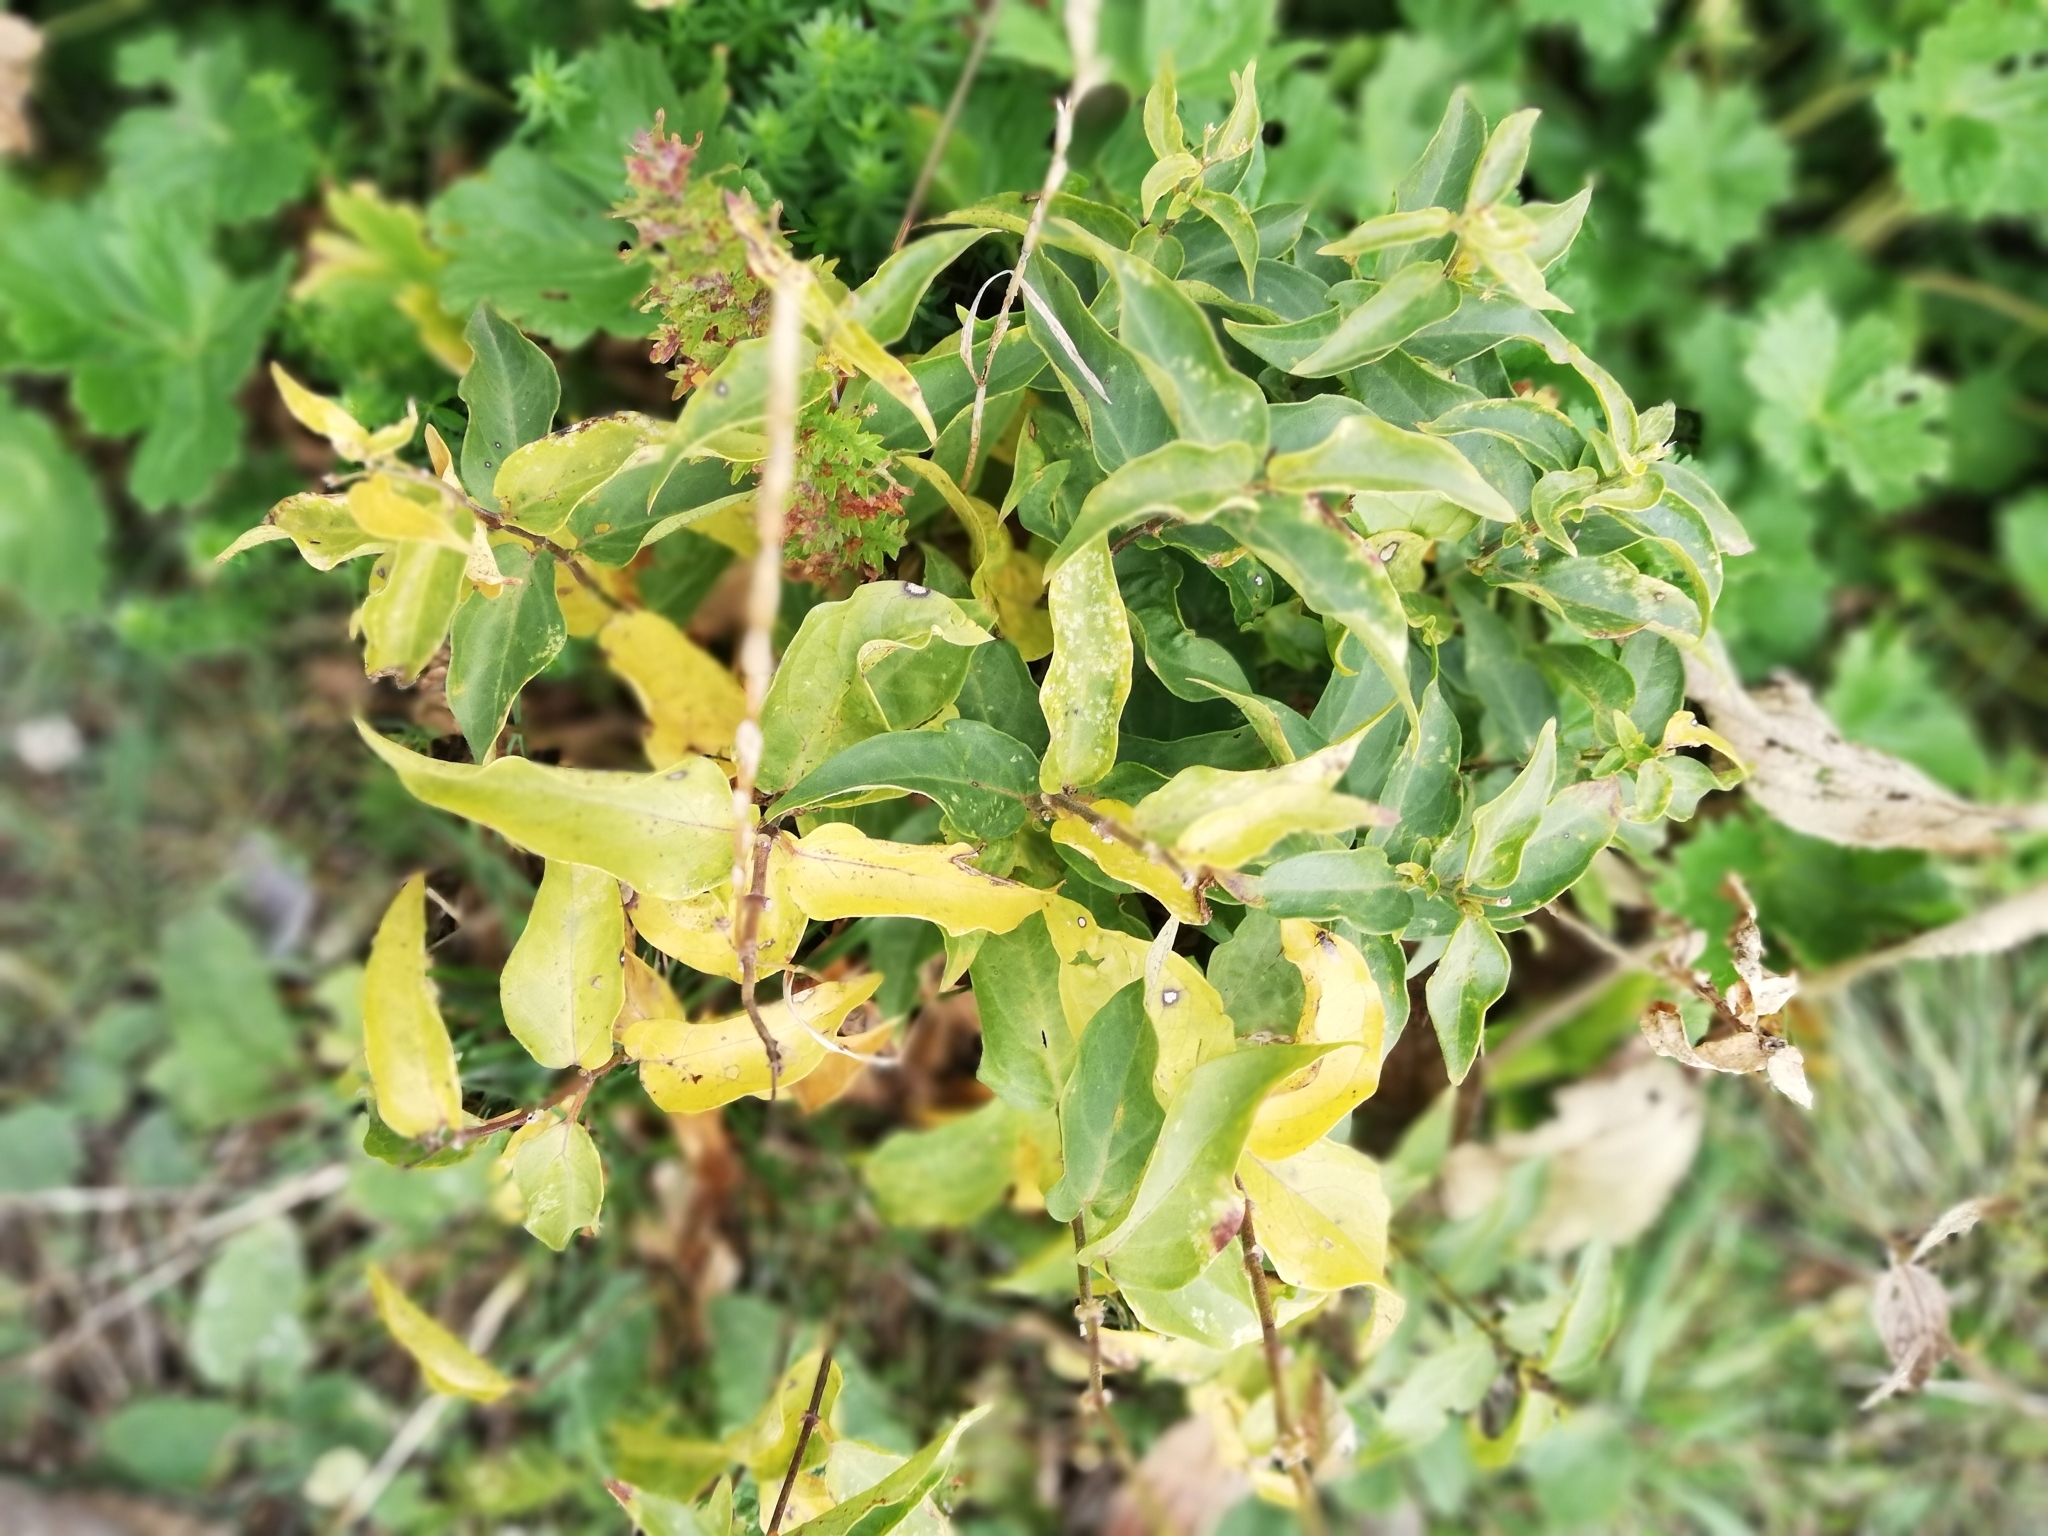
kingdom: Plantae
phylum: Tracheophyta
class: Magnoliopsida
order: Gentianales
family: Apocynaceae
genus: Vincetoxicum
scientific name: Vincetoxicum hirundinaria
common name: White swallowwort
